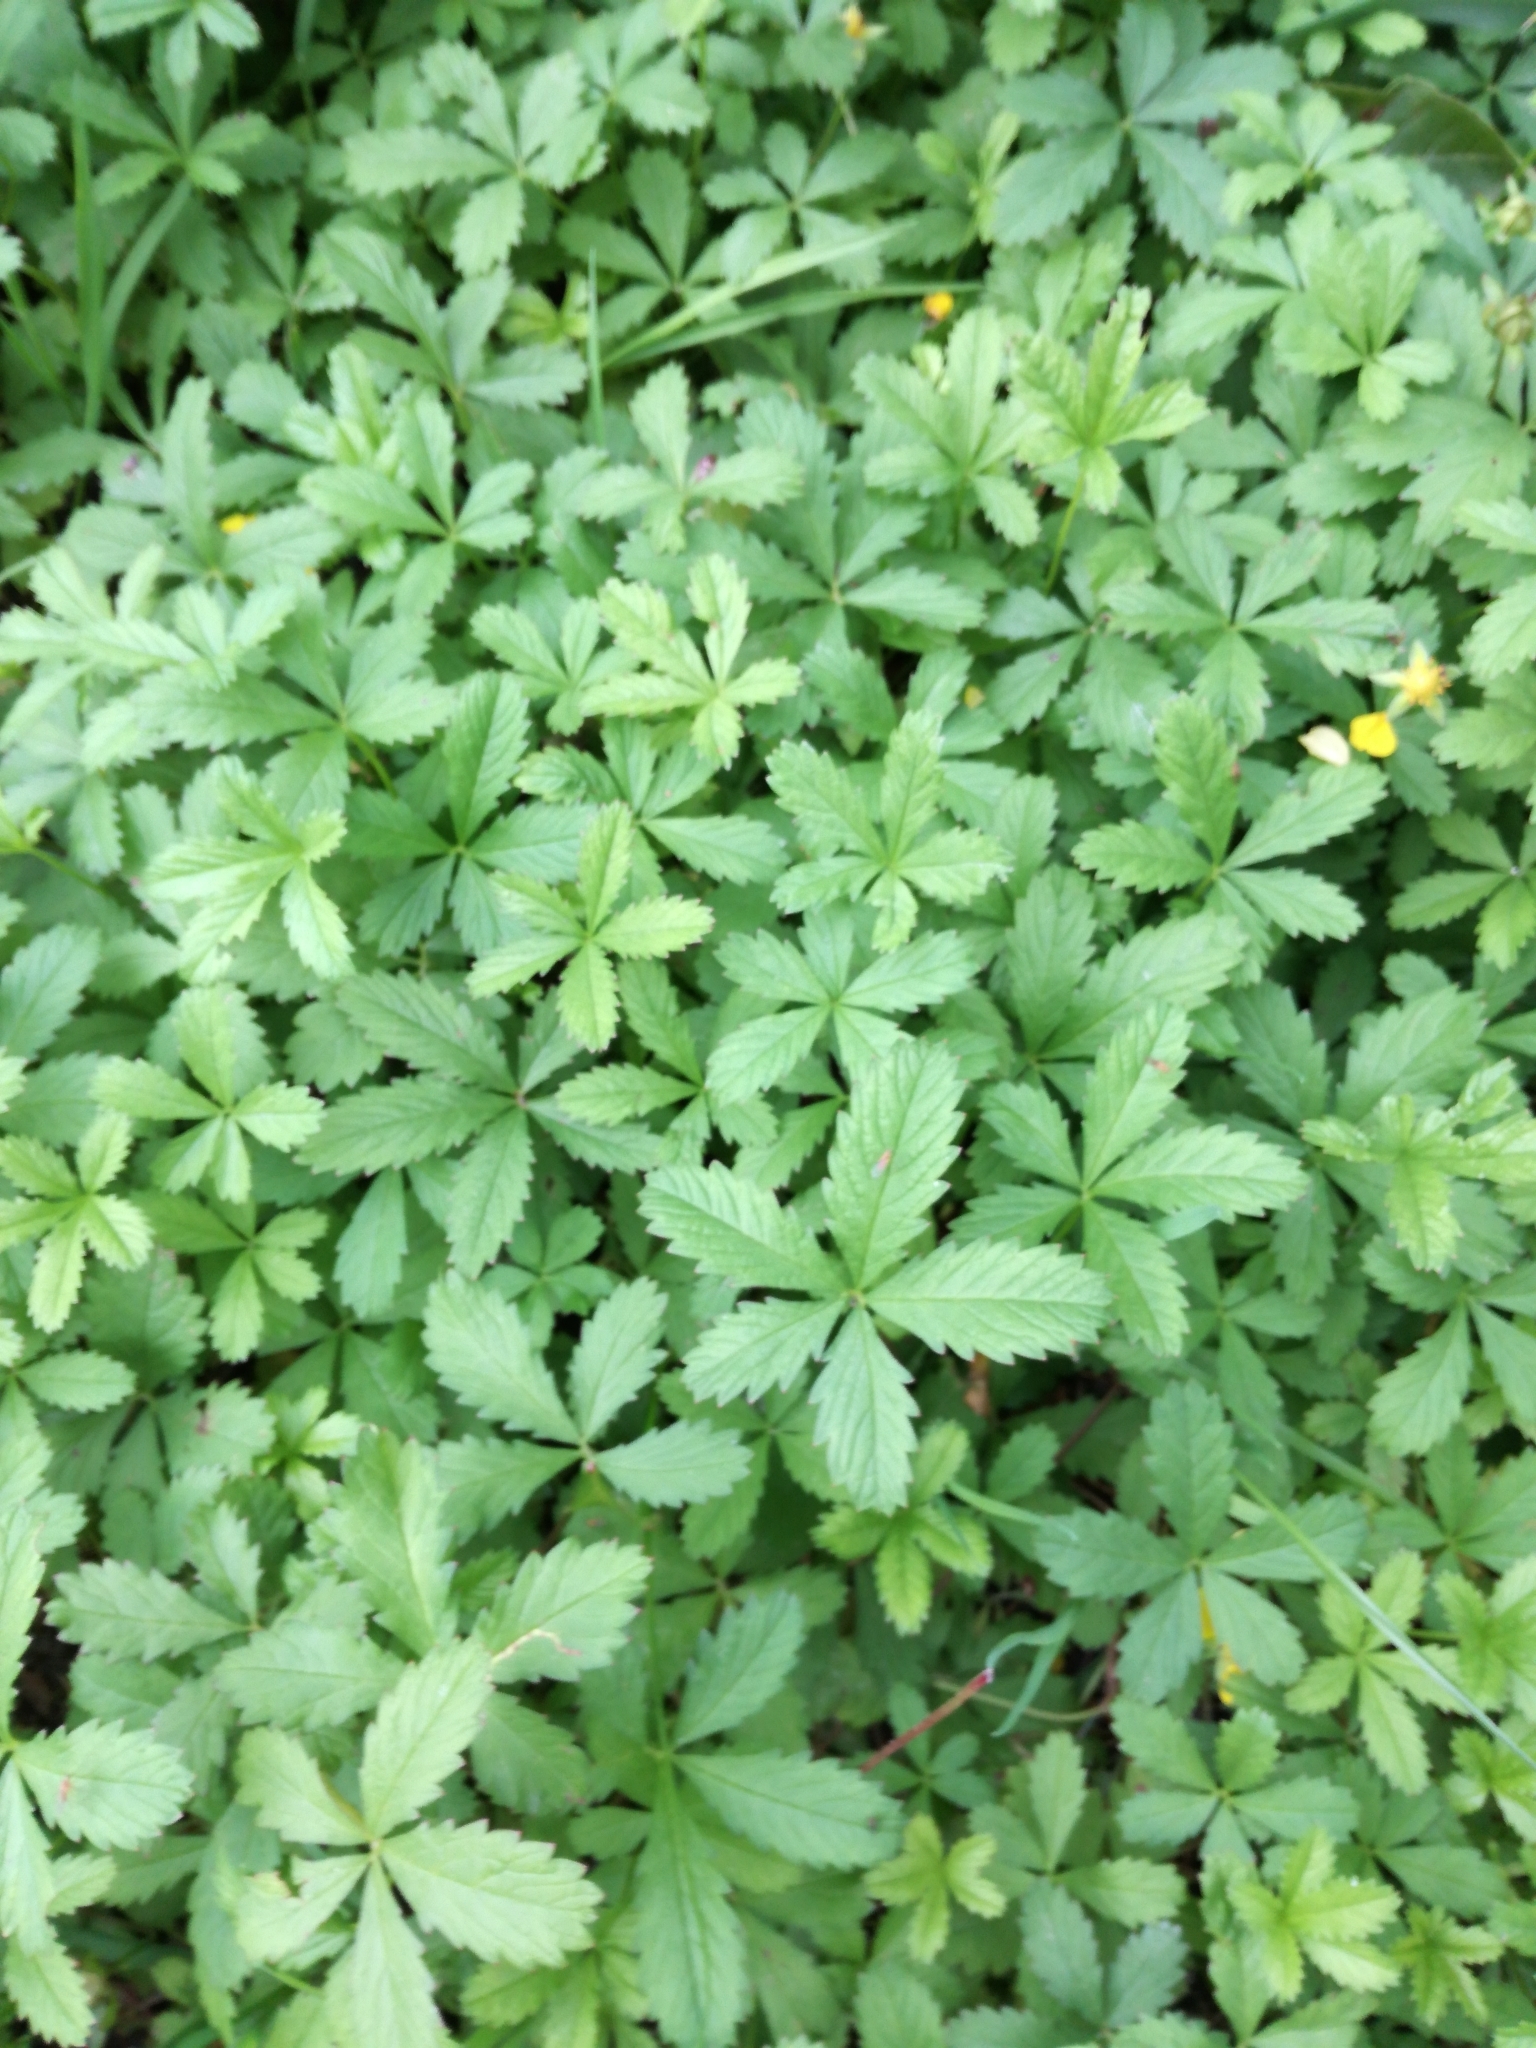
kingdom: Plantae
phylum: Tracheophyta
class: Magnoliopsida
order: Rosales
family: Rosaceae
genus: Potentilla
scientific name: Potentilla reptans
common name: Creeping cinquefoil
